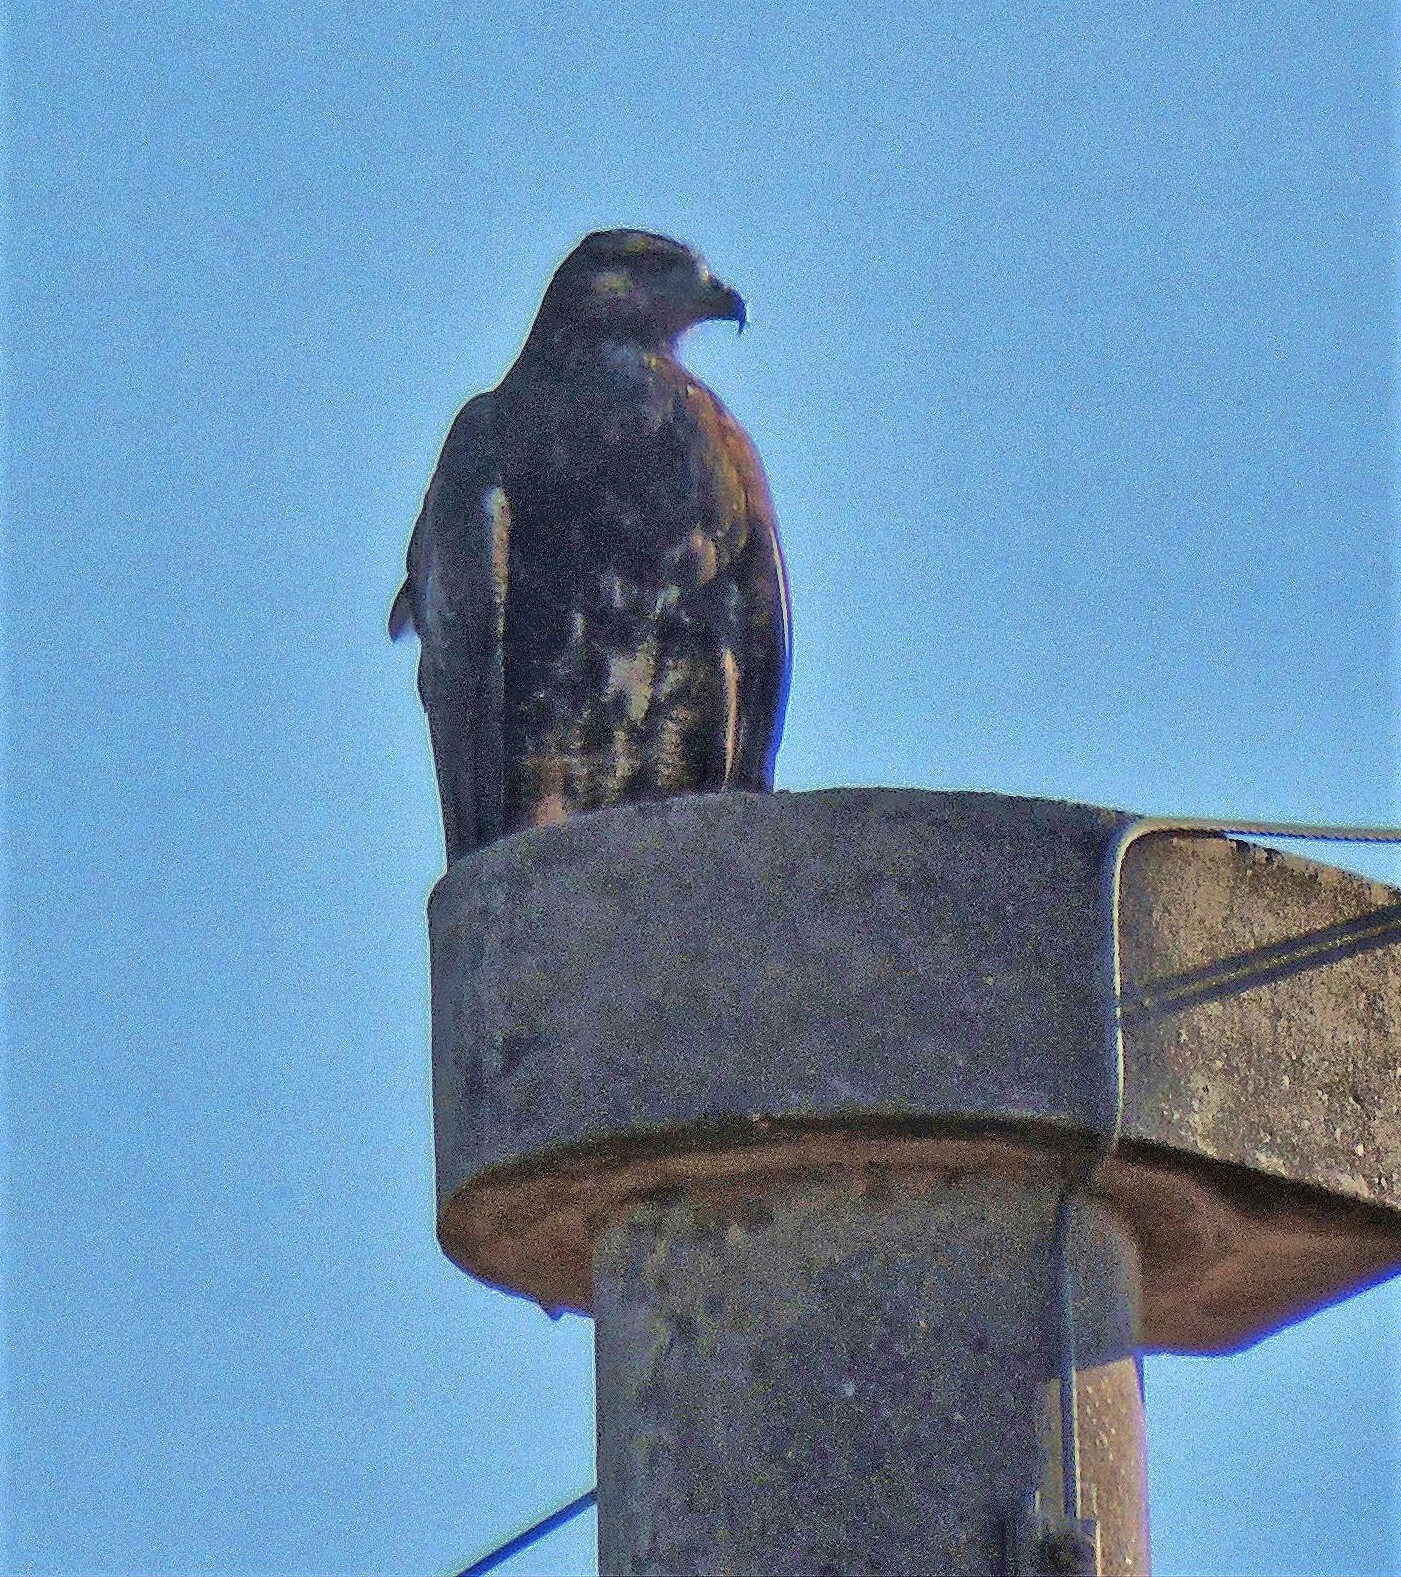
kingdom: Animalia
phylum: Chordata
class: Aves
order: Accipitriformes
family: Accipitridae
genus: Geranoaetus
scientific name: Geranoaetus melanoleucus
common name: Black-chested buzzard-eagle
